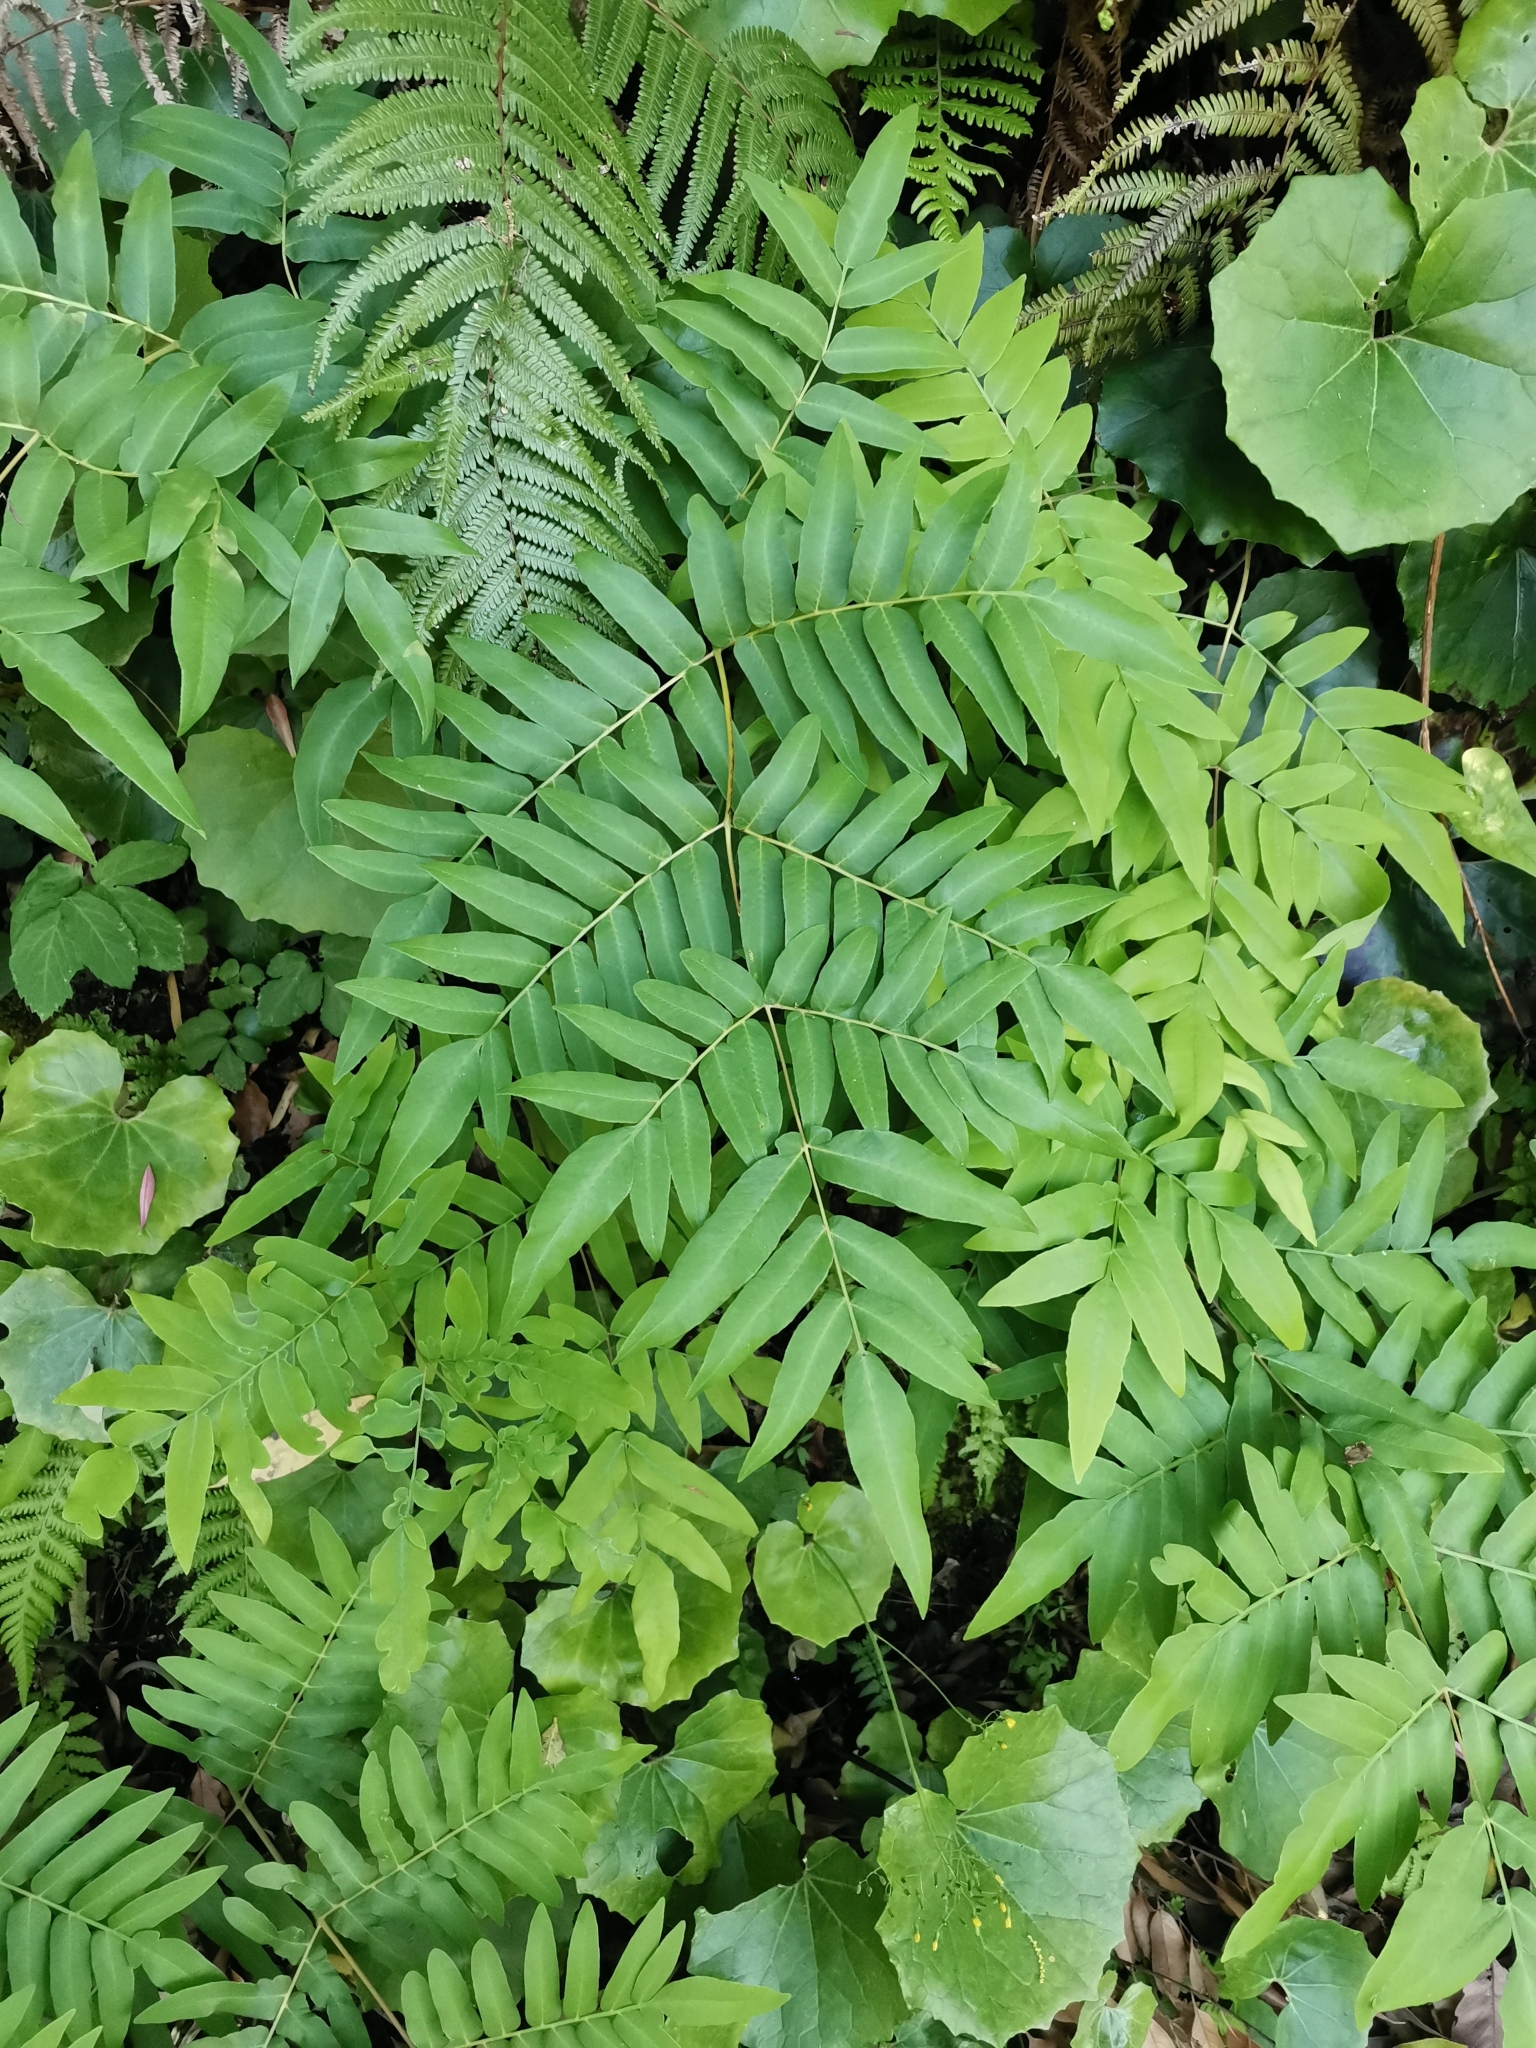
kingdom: Plantae
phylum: Tracheophyta
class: Polypodiopsida
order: Osmundales
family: Osmundaceae
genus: Osmunda
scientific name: Osmunda japonica
